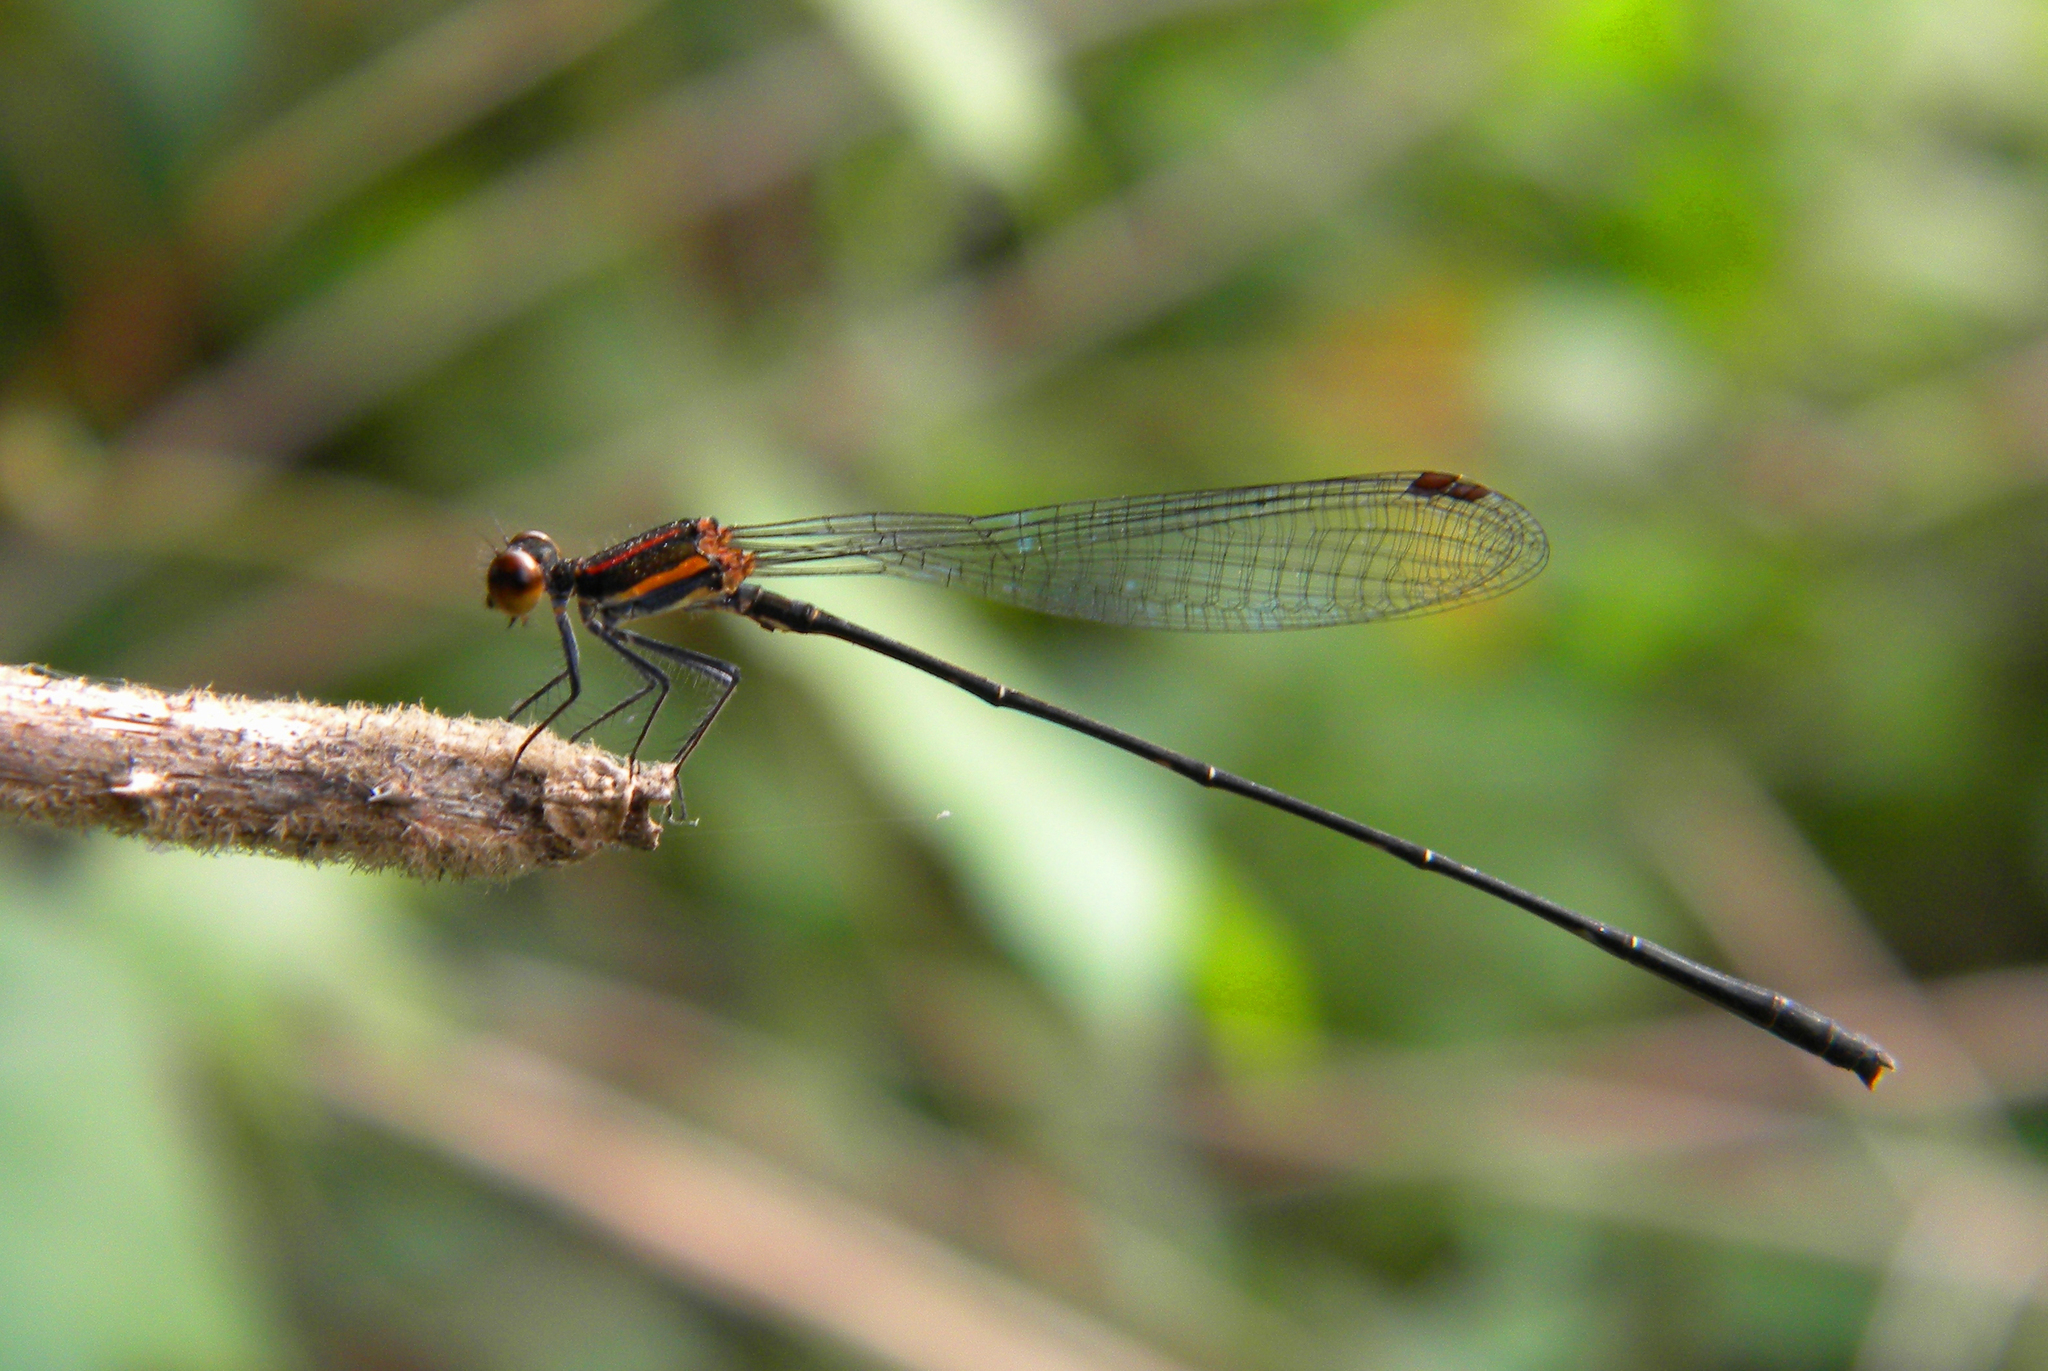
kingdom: Animalia
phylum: Arthropoda
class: Insecta
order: Odonata
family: Platycnemididae
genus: Prodasineura
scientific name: Prodasineura verticalis
